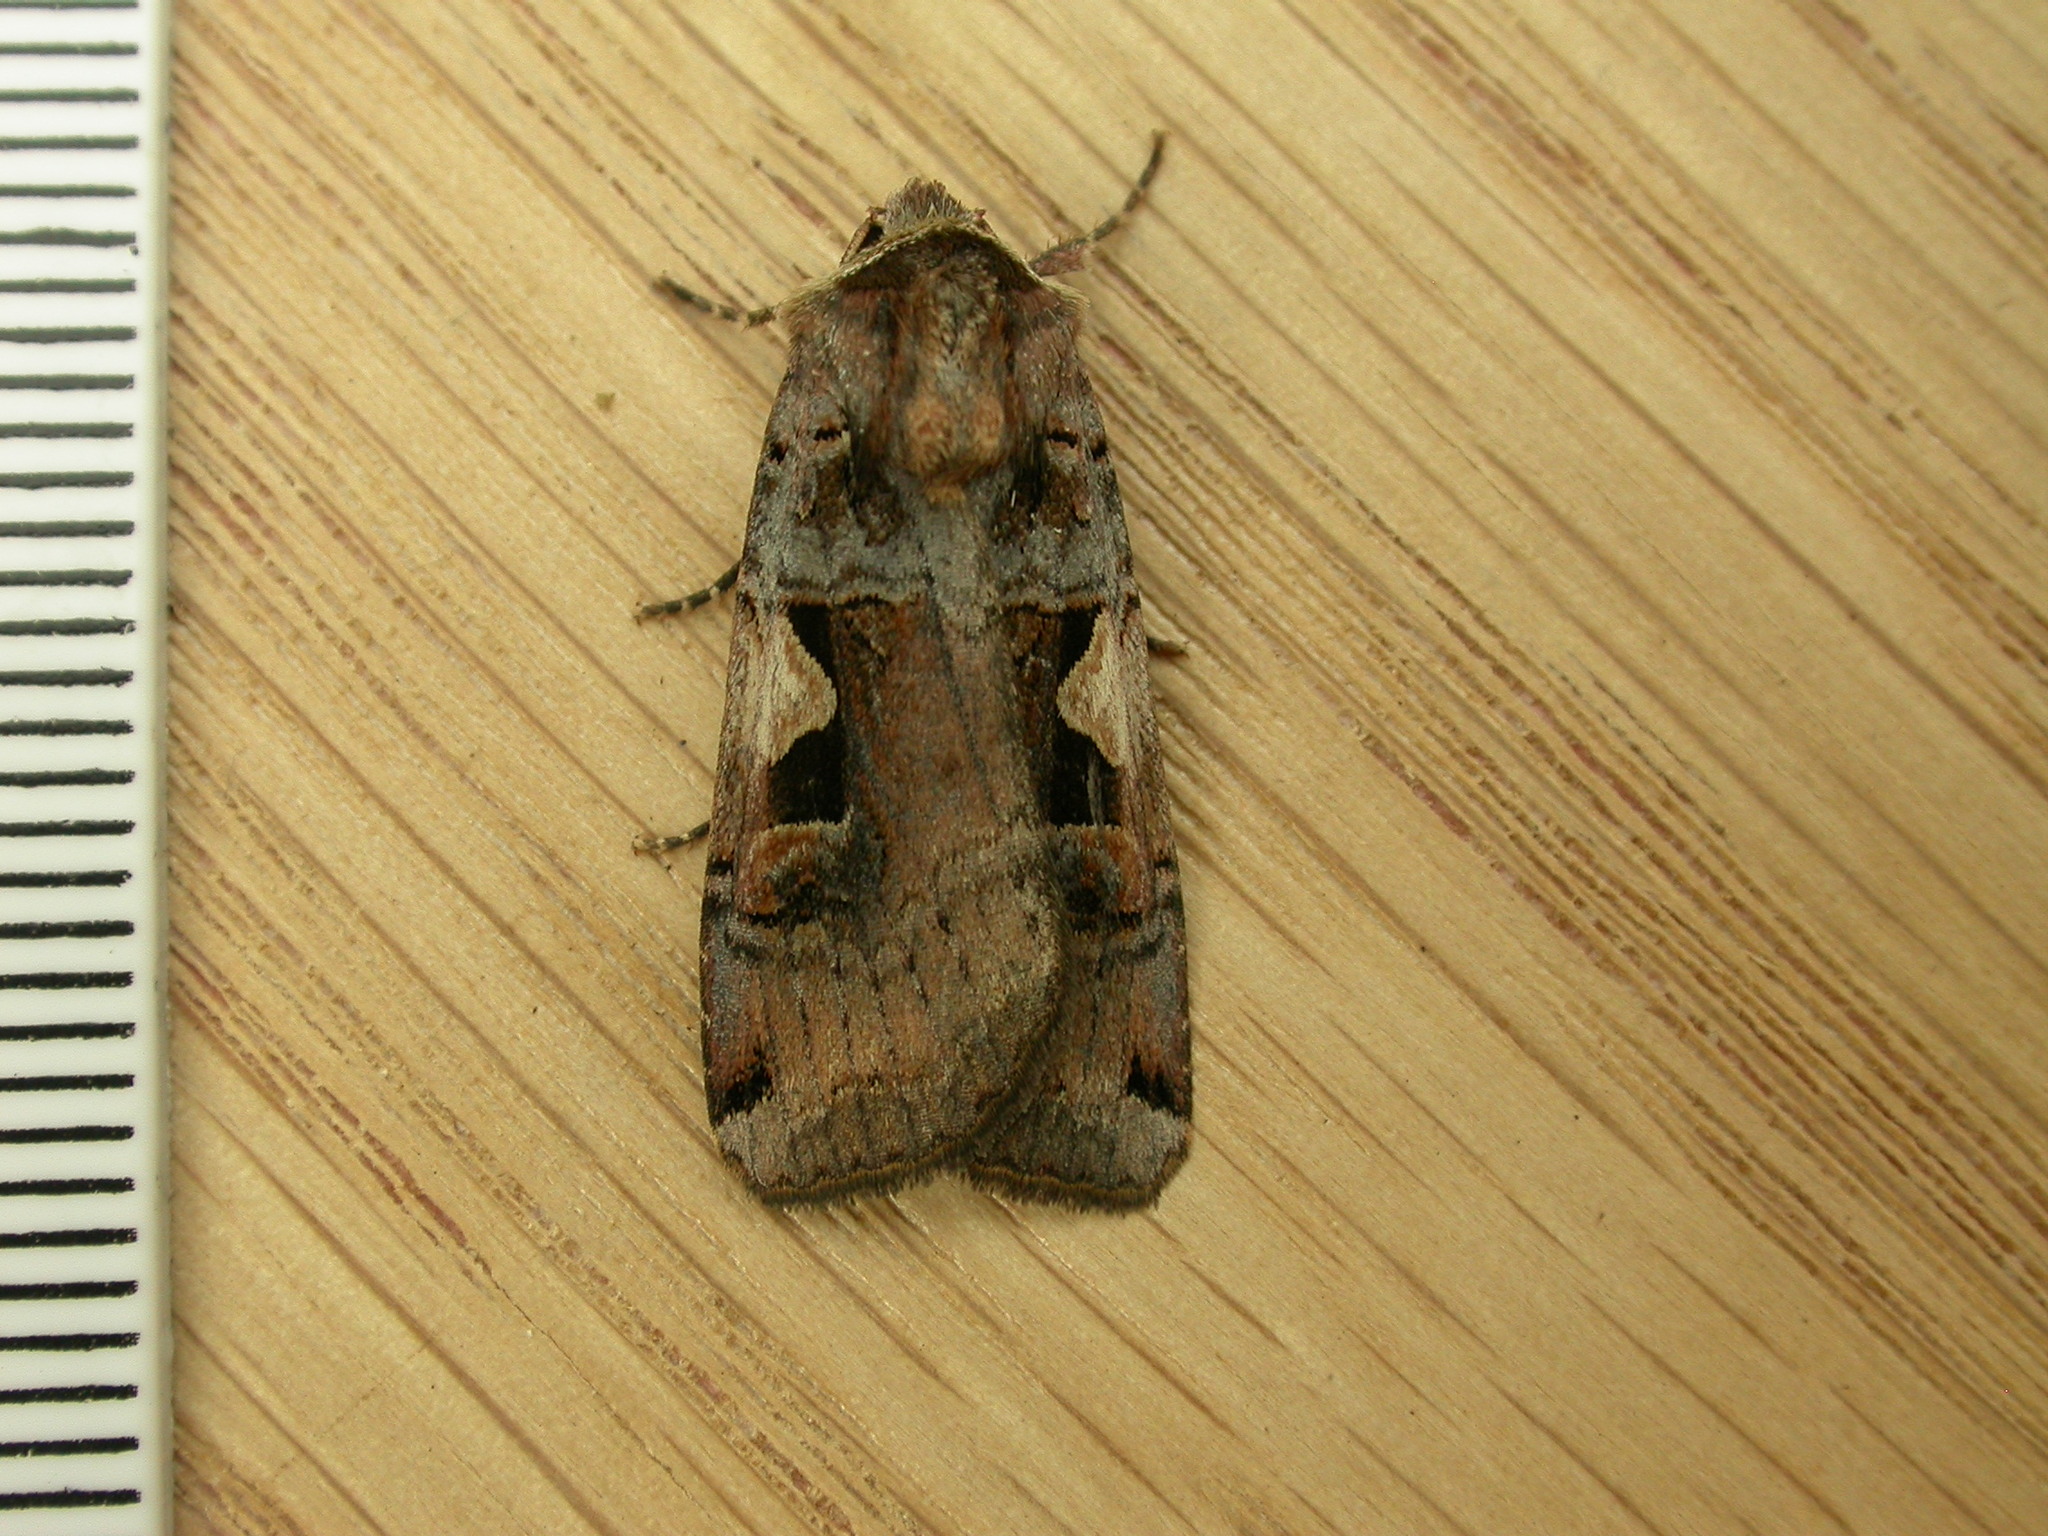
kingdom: Animalia
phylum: Arthropoda
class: Insecta
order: Lepidoptera
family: Noctuidae
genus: Xestia
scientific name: Xestia c-nigrum
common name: Setaceous hebrew character
